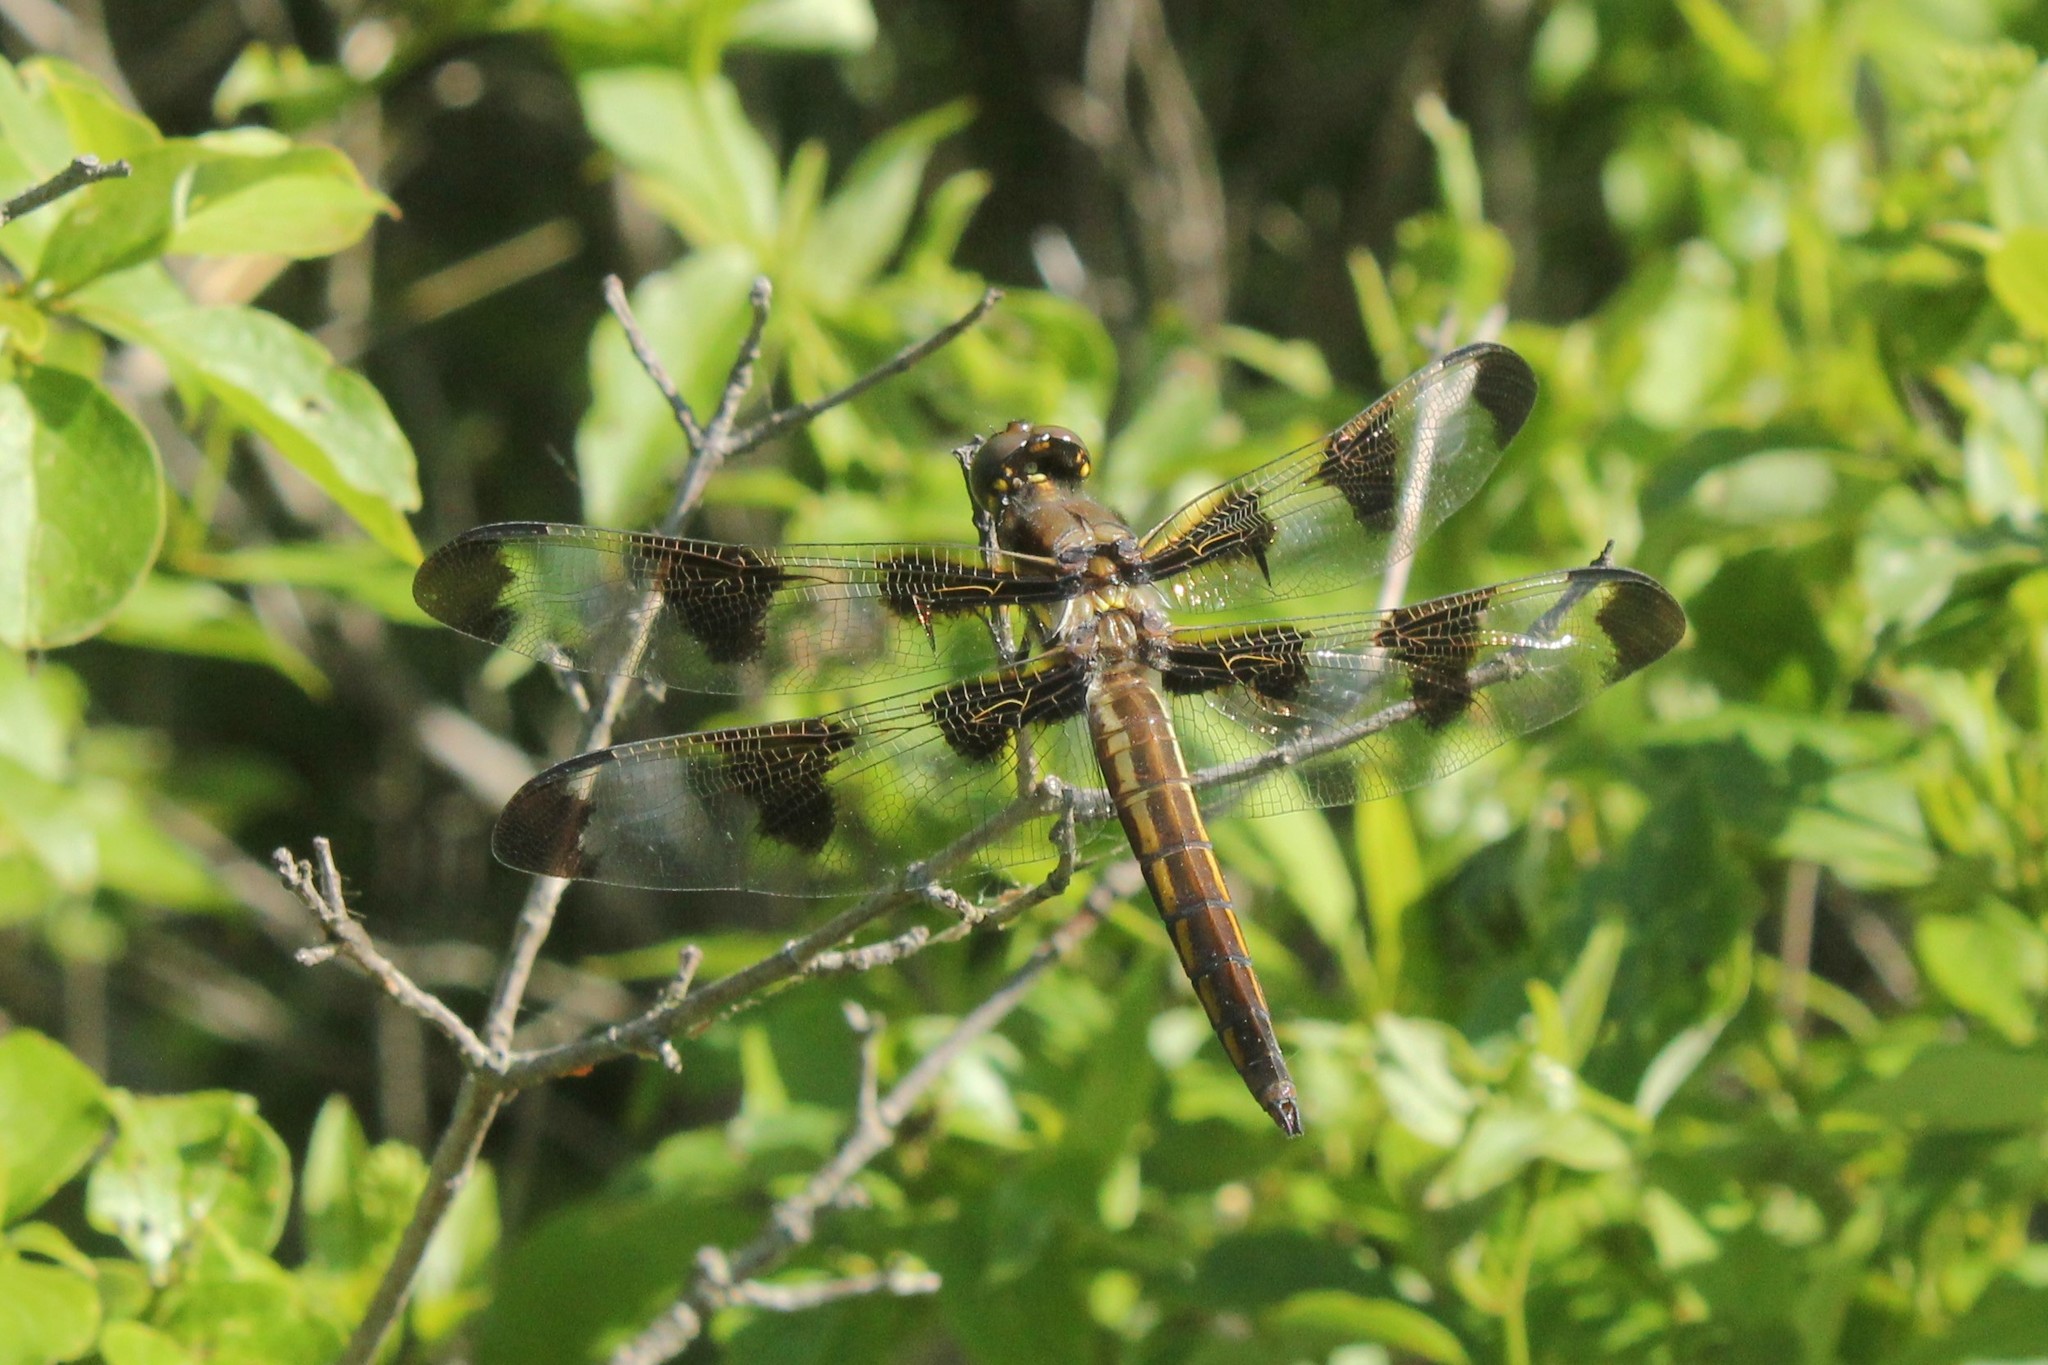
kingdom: Animalia
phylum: Arthropoda
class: Insecta
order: Odonata
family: Libellulidae
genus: Libellula
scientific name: Libellula pulchella
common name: Twelve-spotted skimmer
